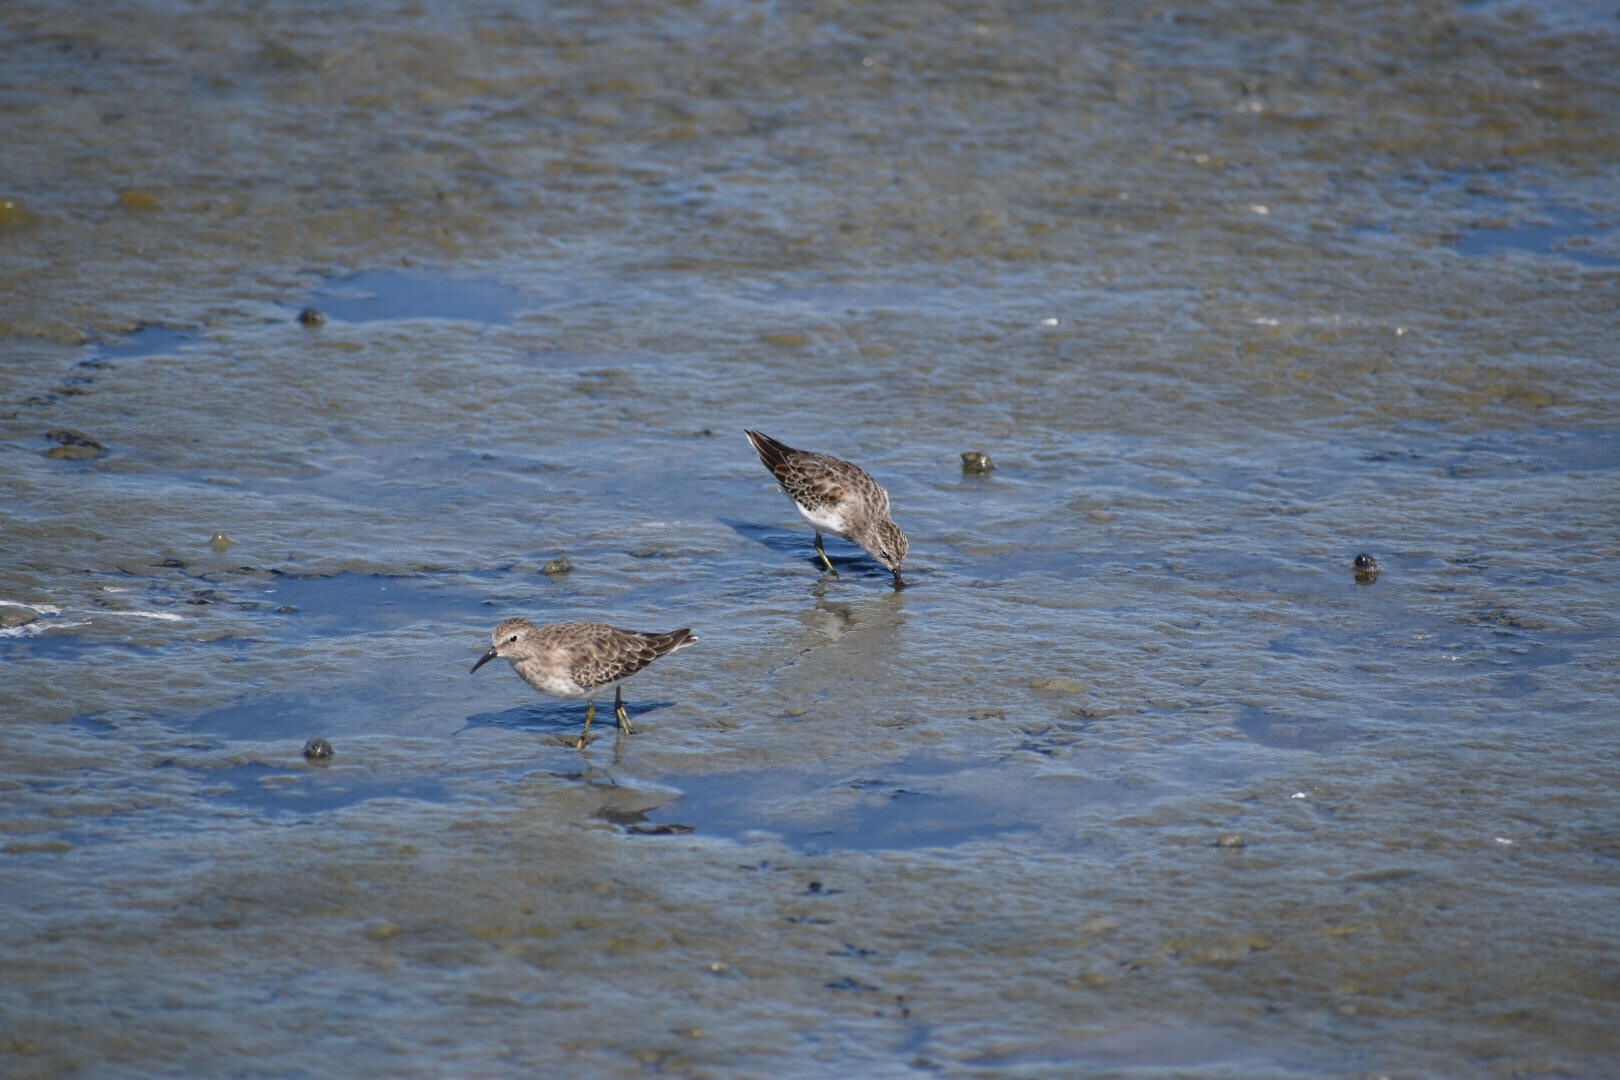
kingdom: Animalia
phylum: Chordata
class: Aves
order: Charadriiformes
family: Scolopacidae
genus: Calidris
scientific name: Calidris minutilla
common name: Least sandpiper
